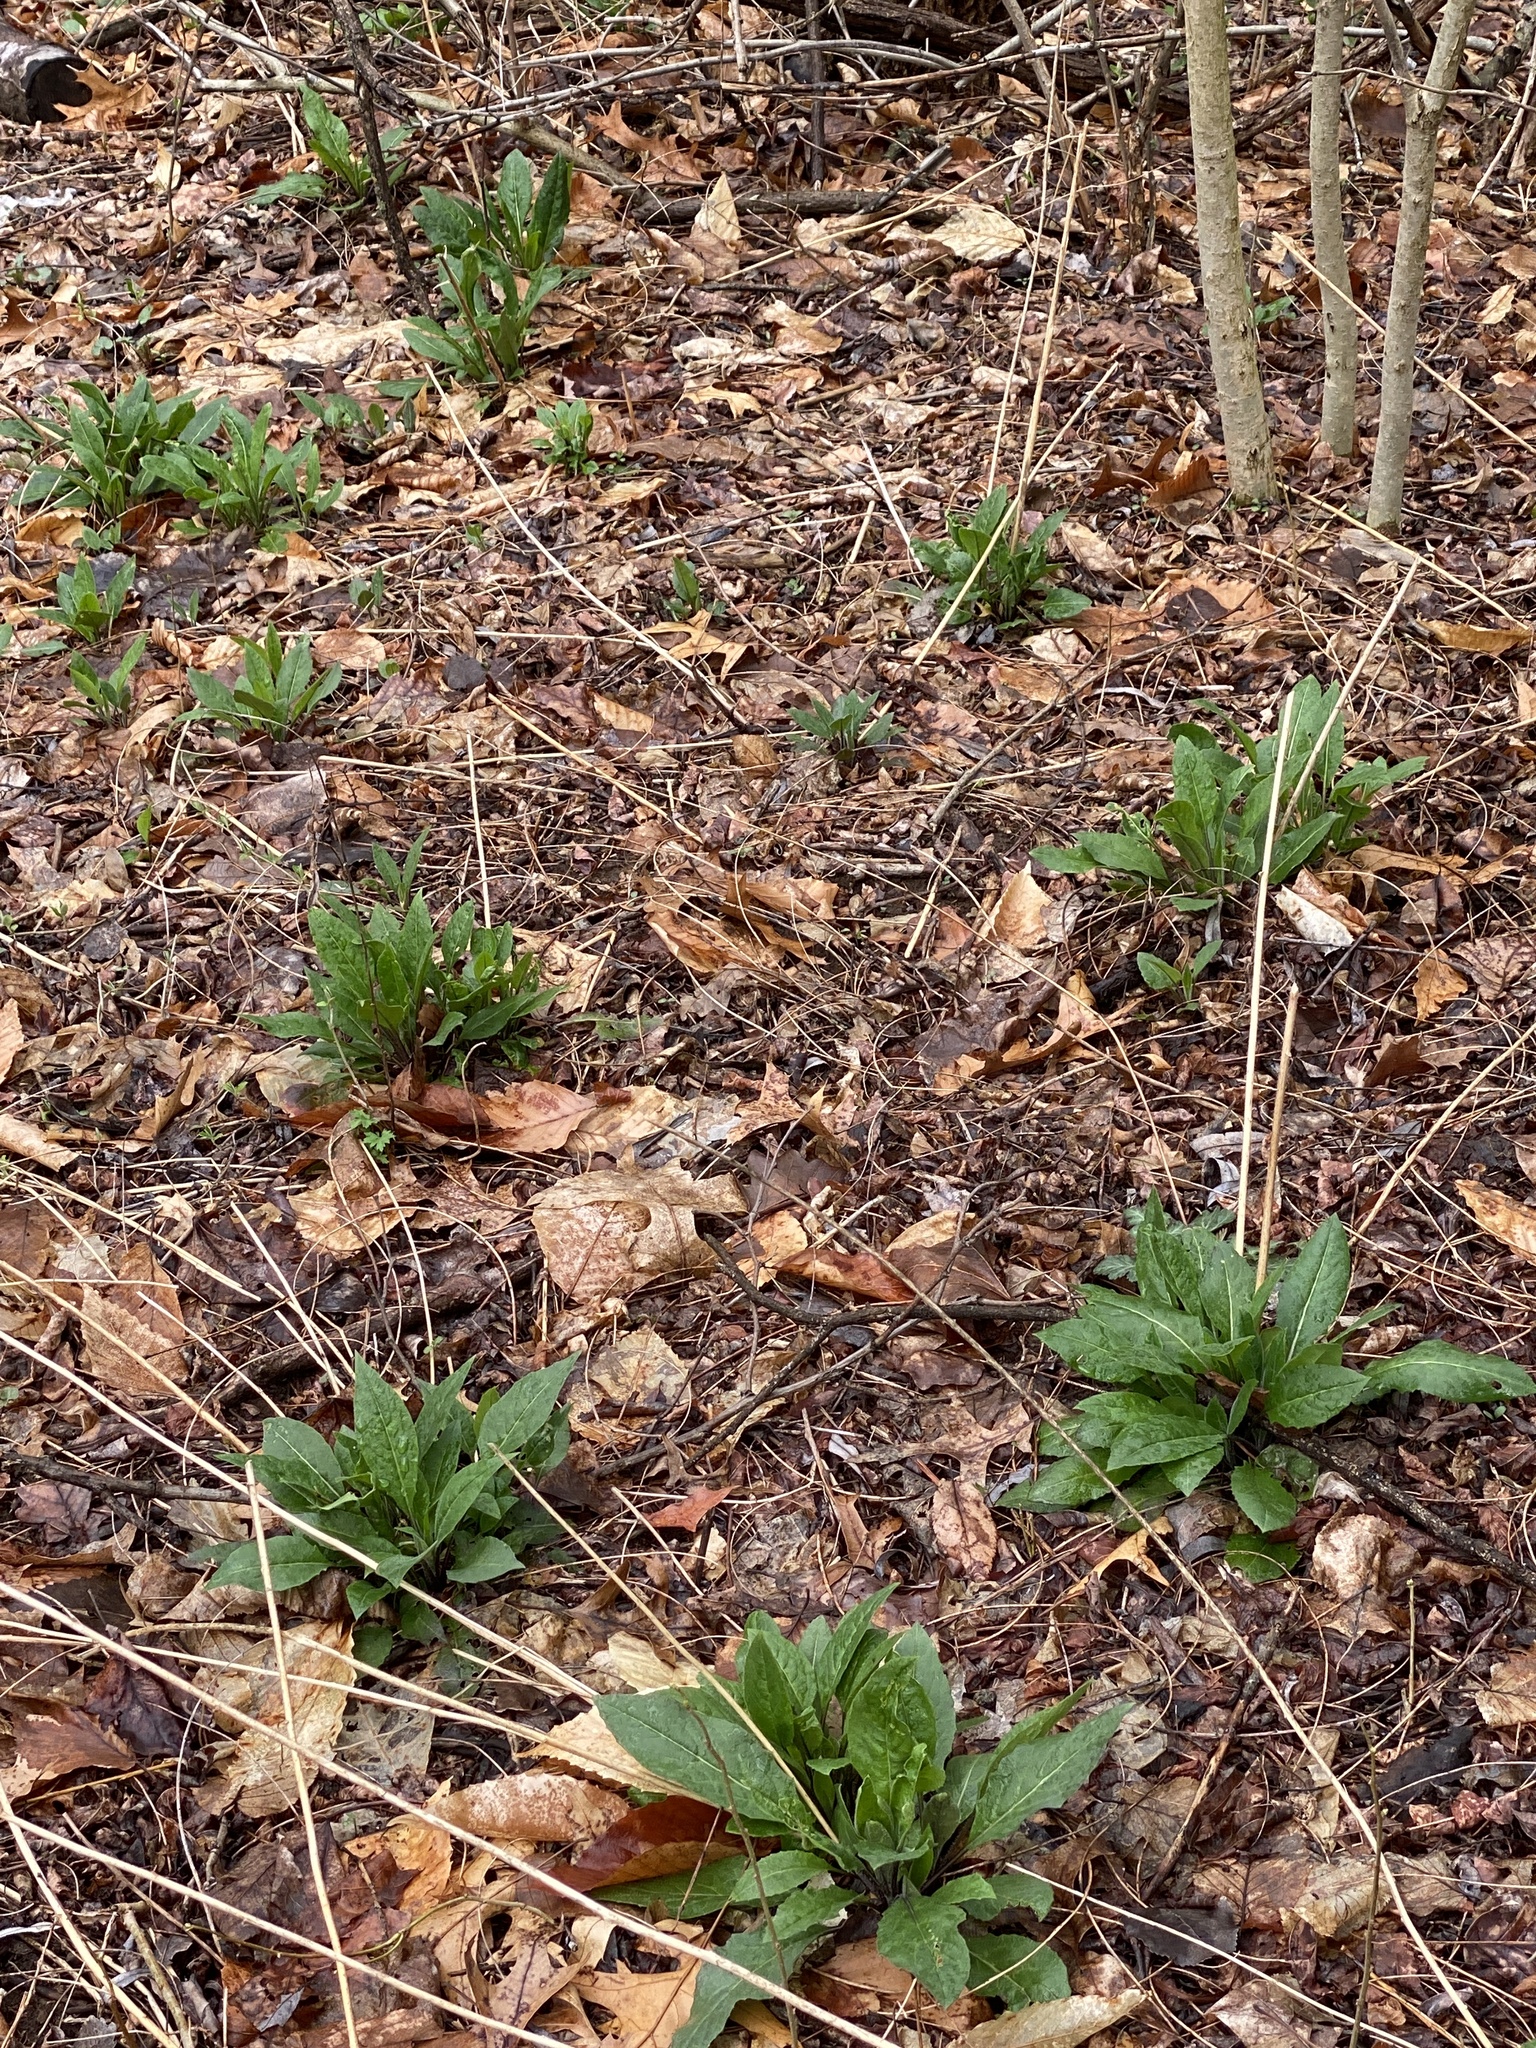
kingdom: Plantae
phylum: Tracheophyta
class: Magnoliopsida
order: Brassicales
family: Brassicaceae
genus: Hesperis
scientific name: Hesperis matronalis
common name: Dame's-violet
